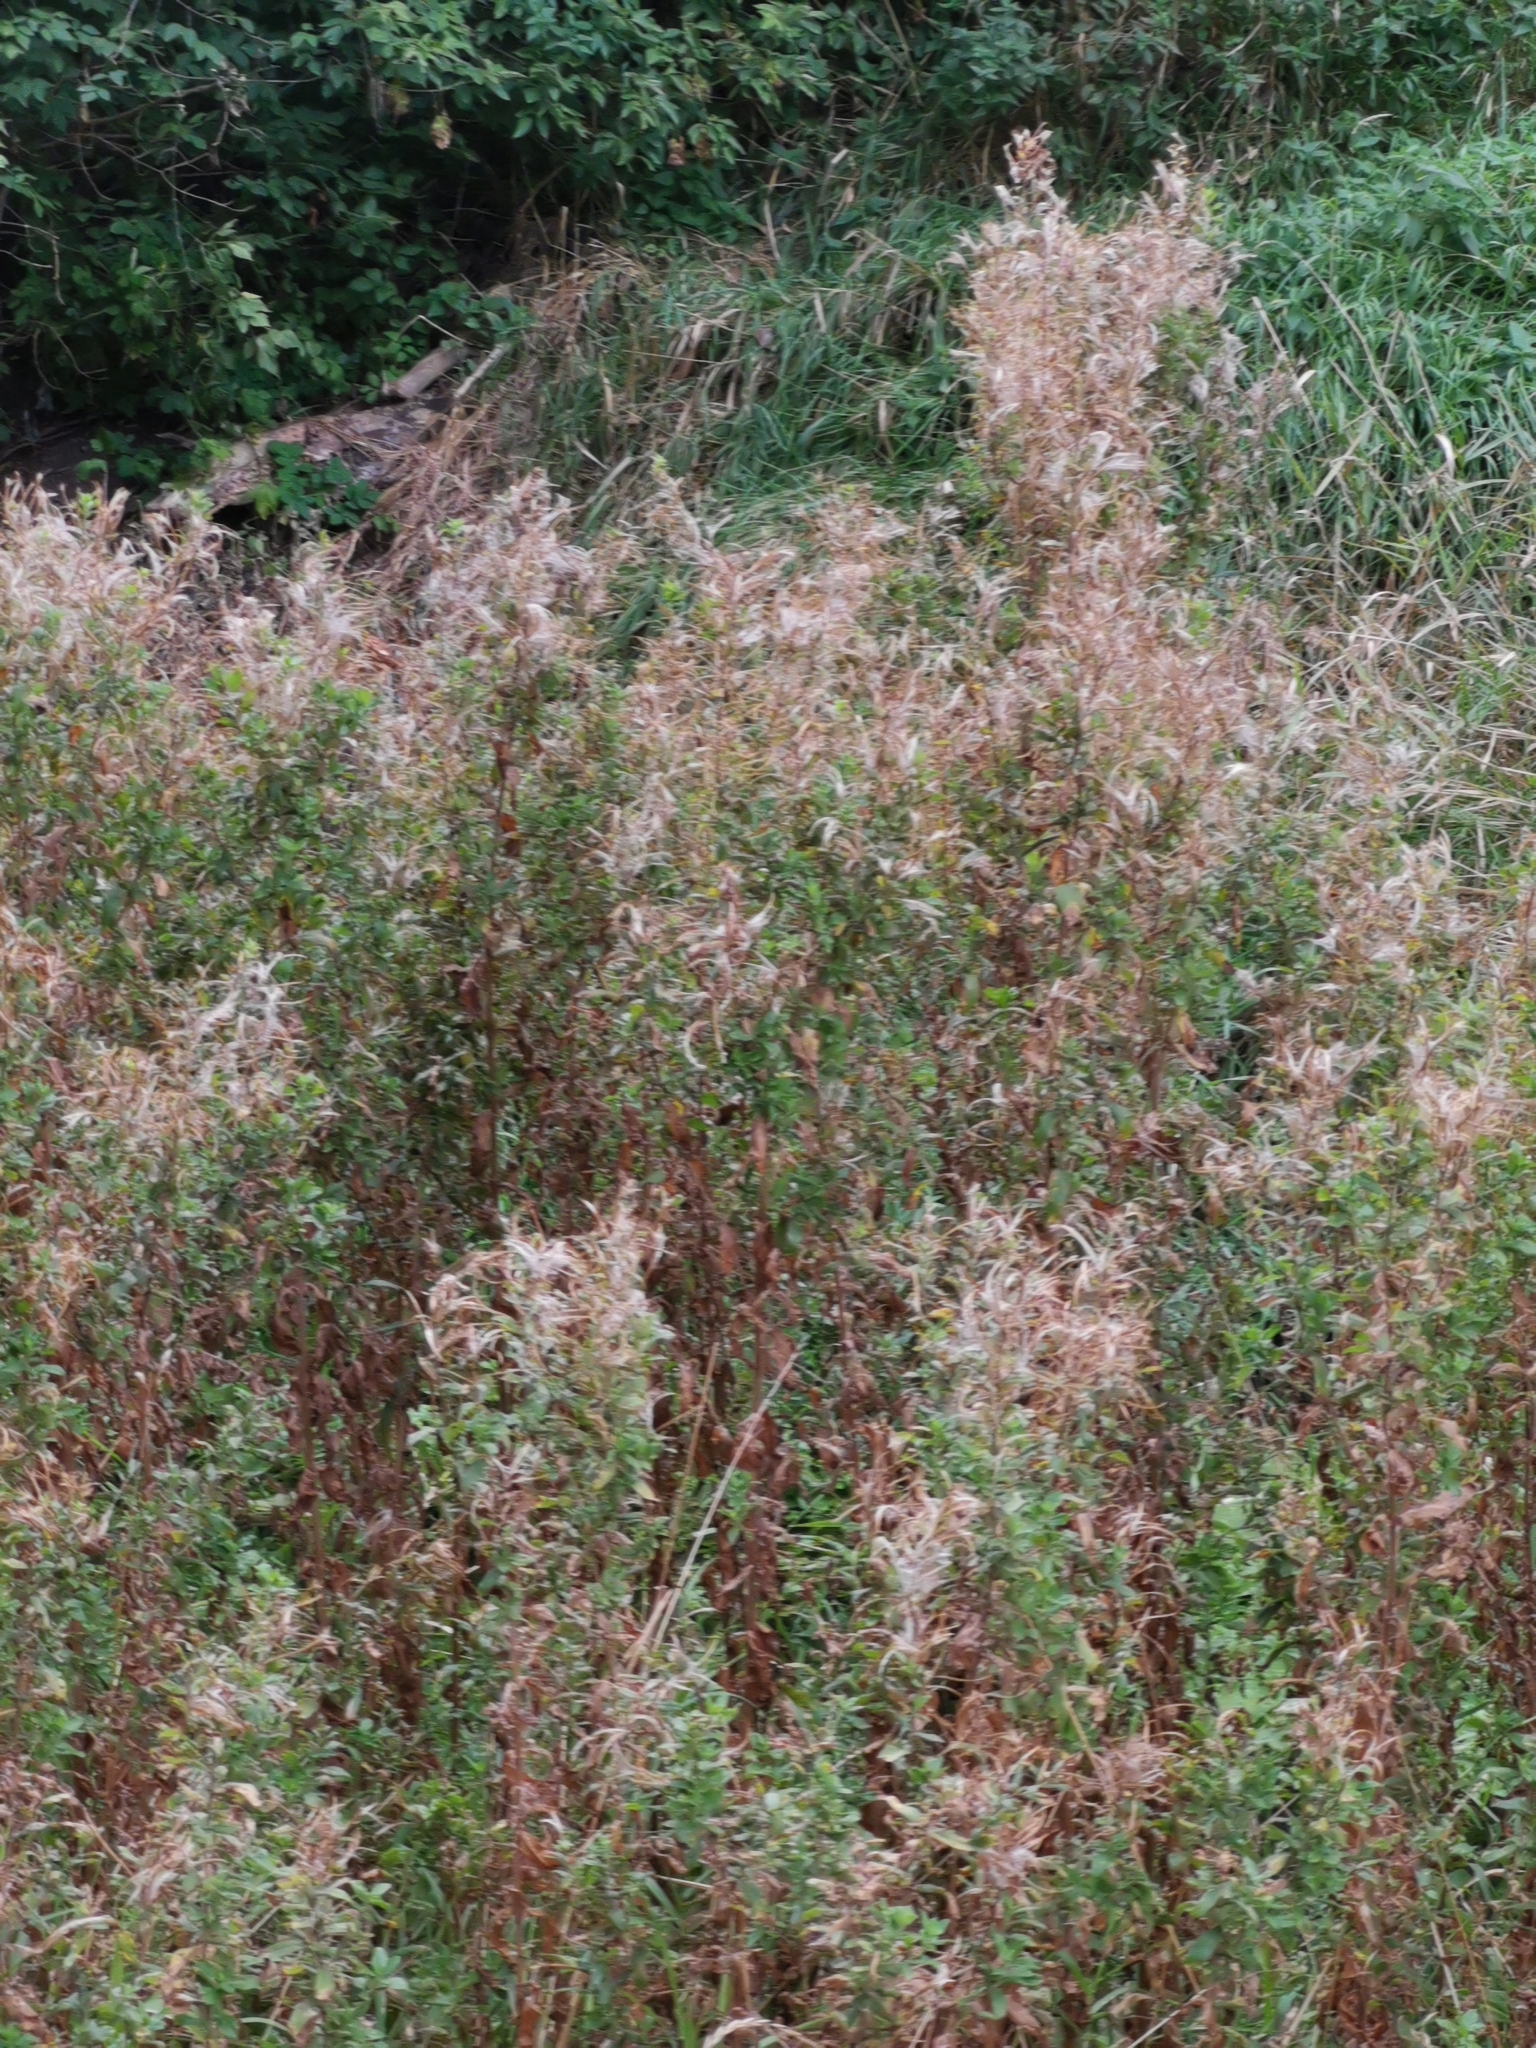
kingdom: Plantae
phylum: Tracheophyta
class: Magnoliopsida
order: Myrtales
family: Onagraceae
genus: Epilobium
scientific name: Epilobium hirsutum
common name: Great willowherb
